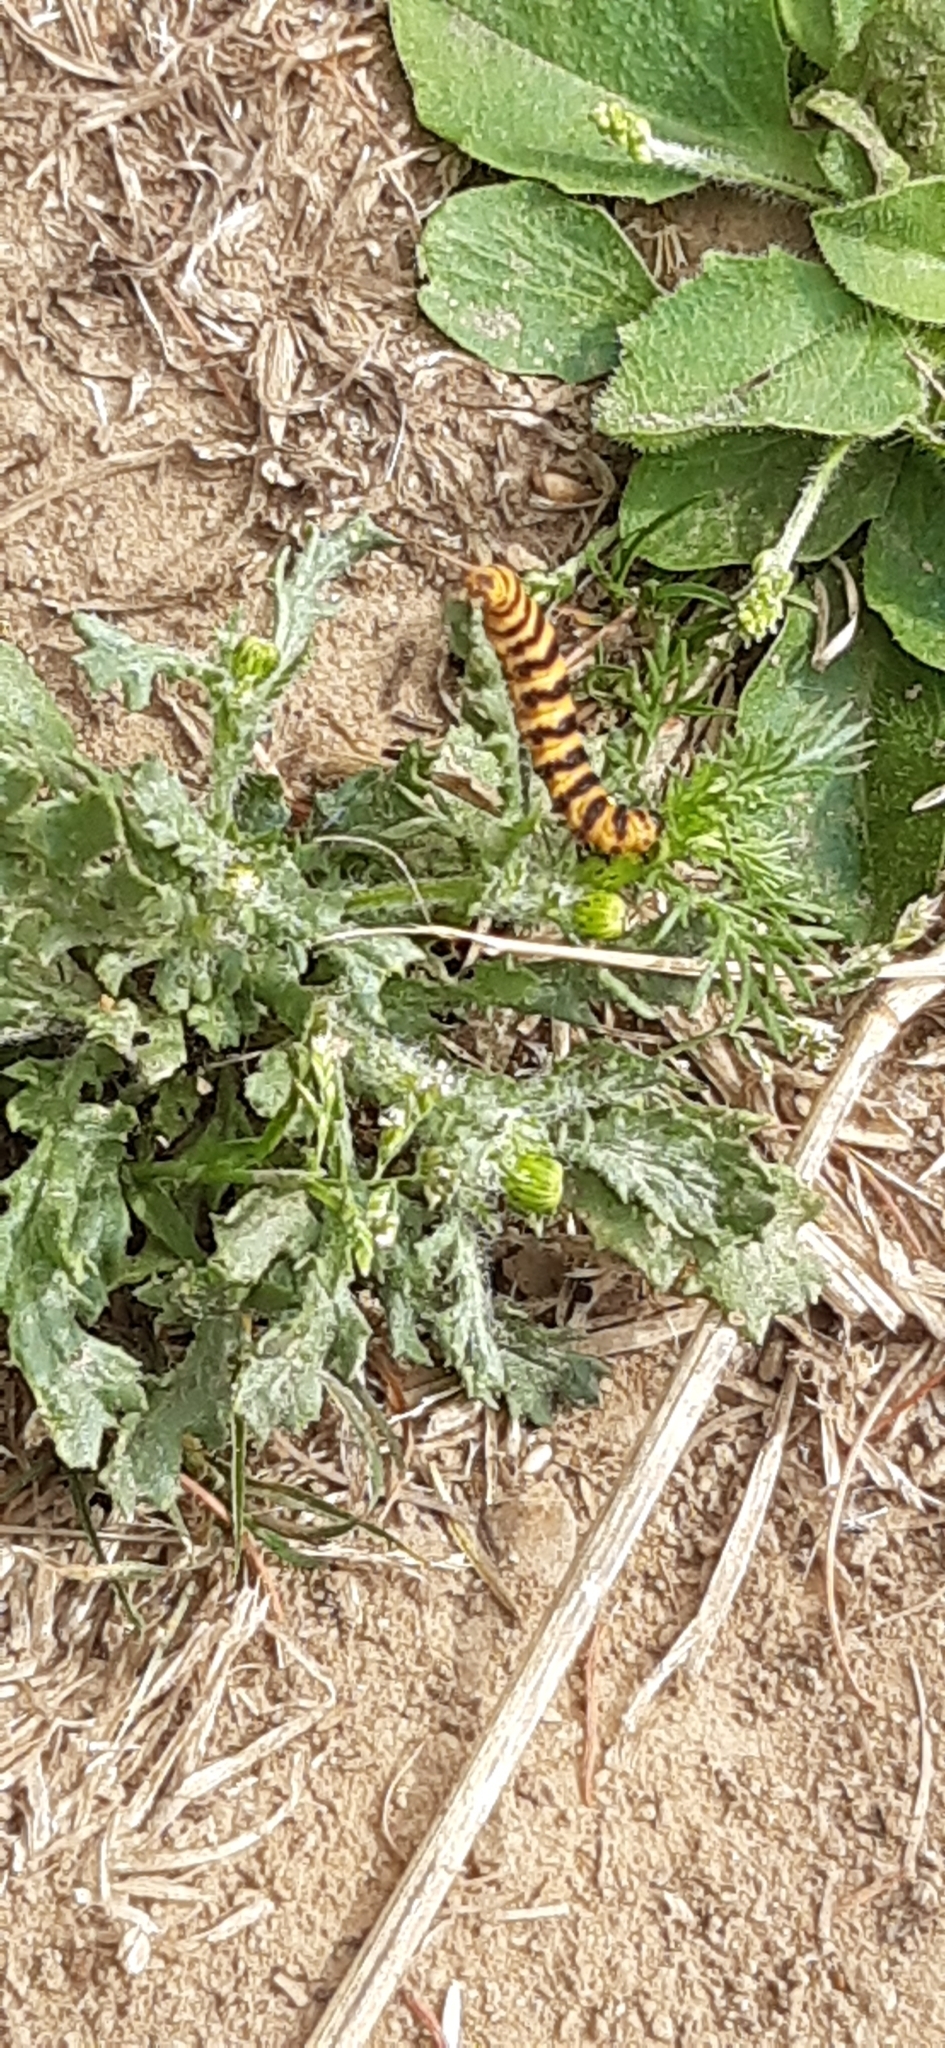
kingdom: Animalia
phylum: Arthropoda
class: Insecta
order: Lepidoptera
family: Erebidae
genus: Tyria
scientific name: Tyria jacobaeae
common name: Cinnabar
